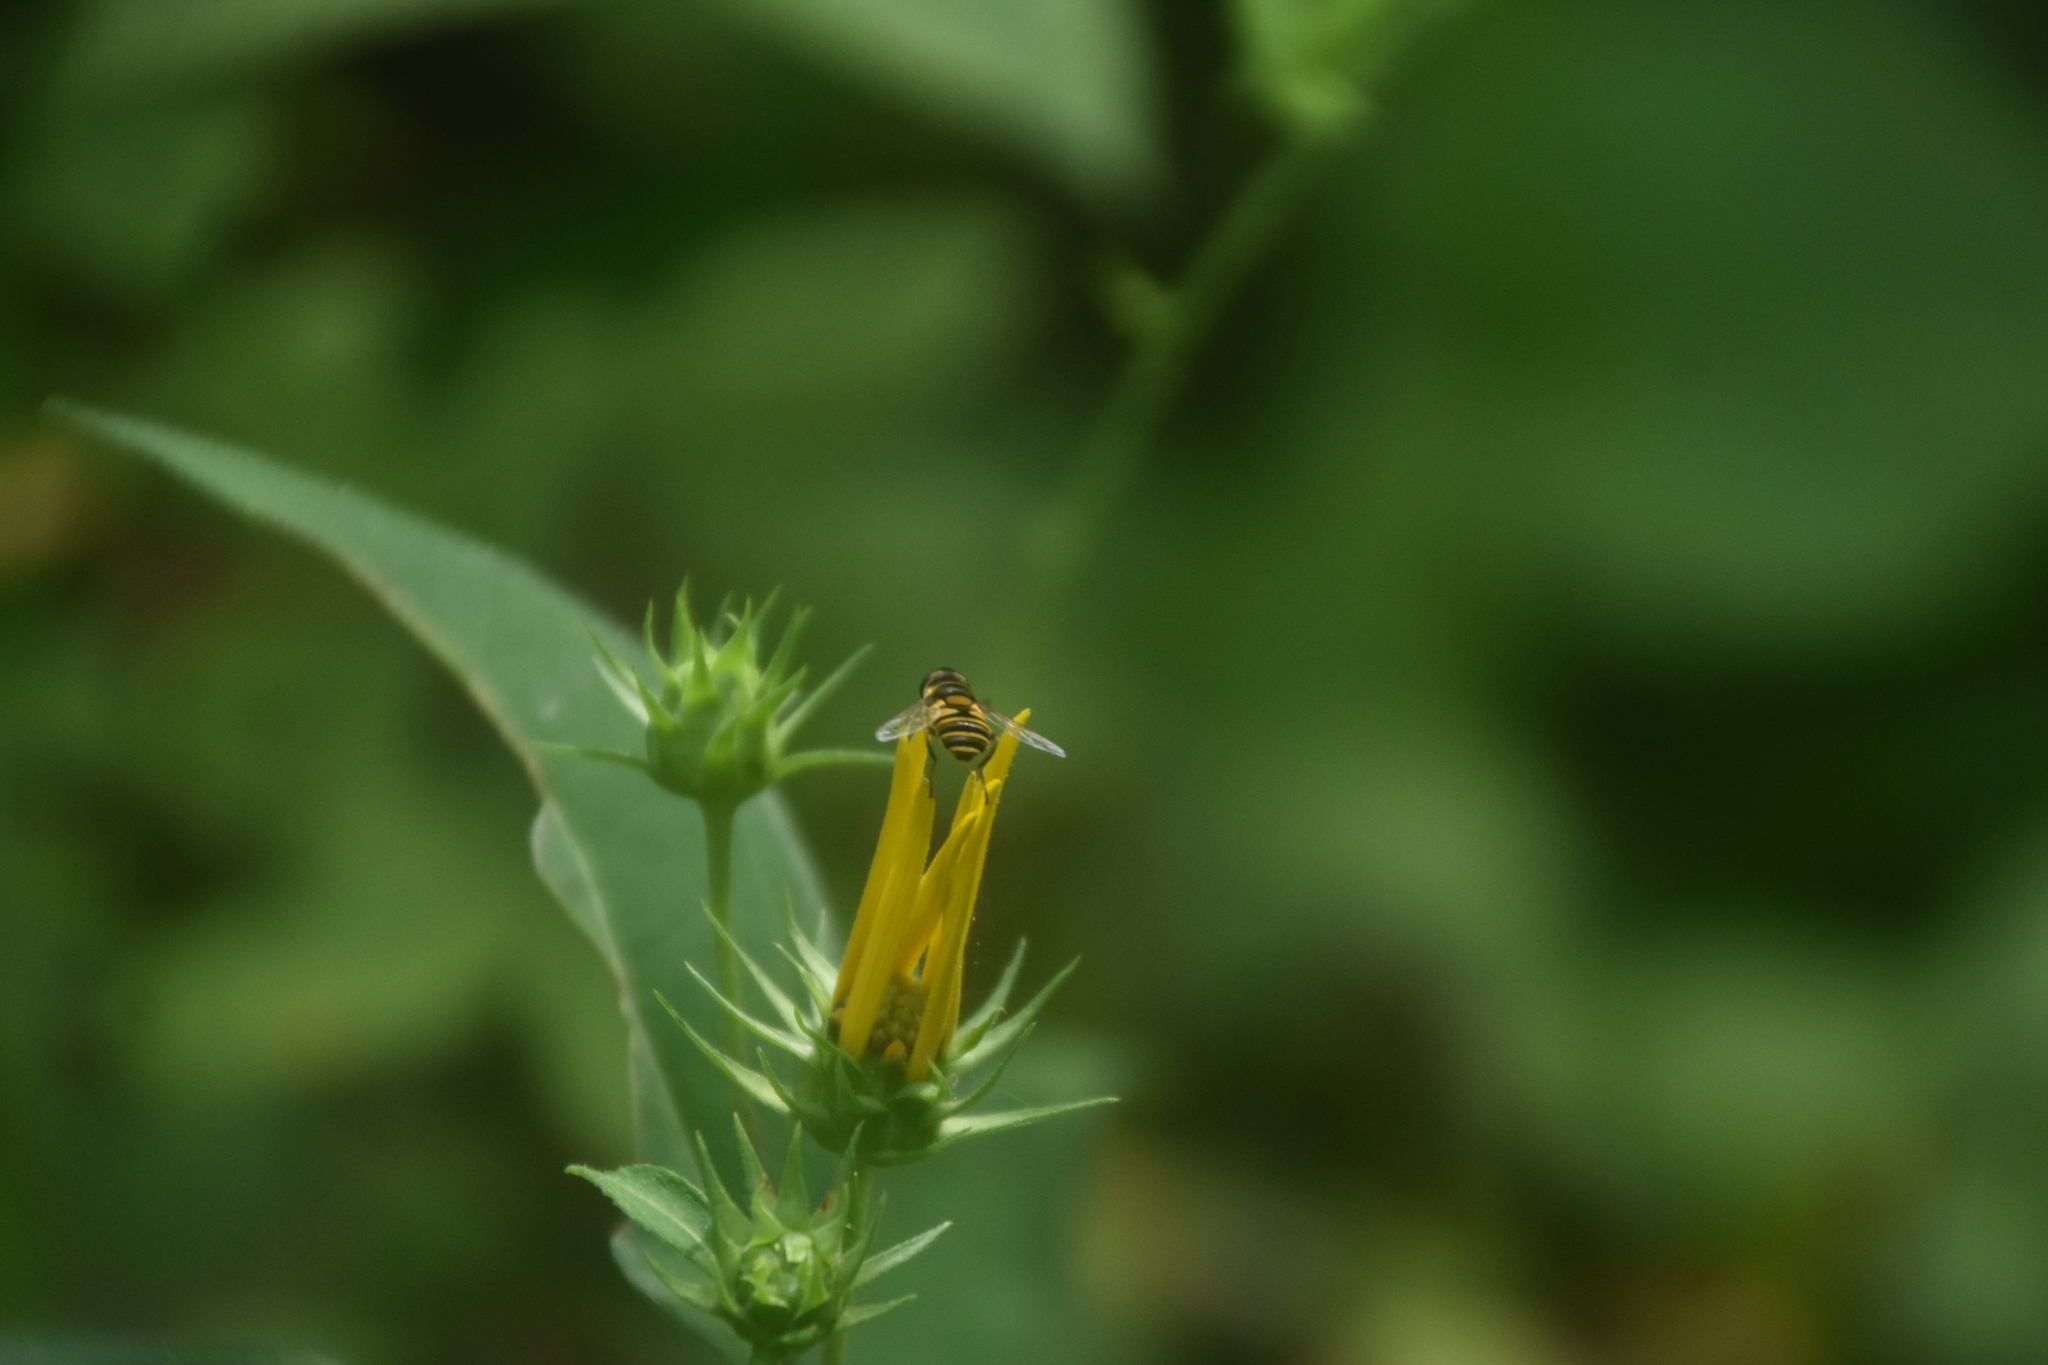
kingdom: Animalia
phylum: Arthropoda
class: Insecta
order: Diptera
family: Syrphidae
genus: Eristalis
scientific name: Eristalis transversa
